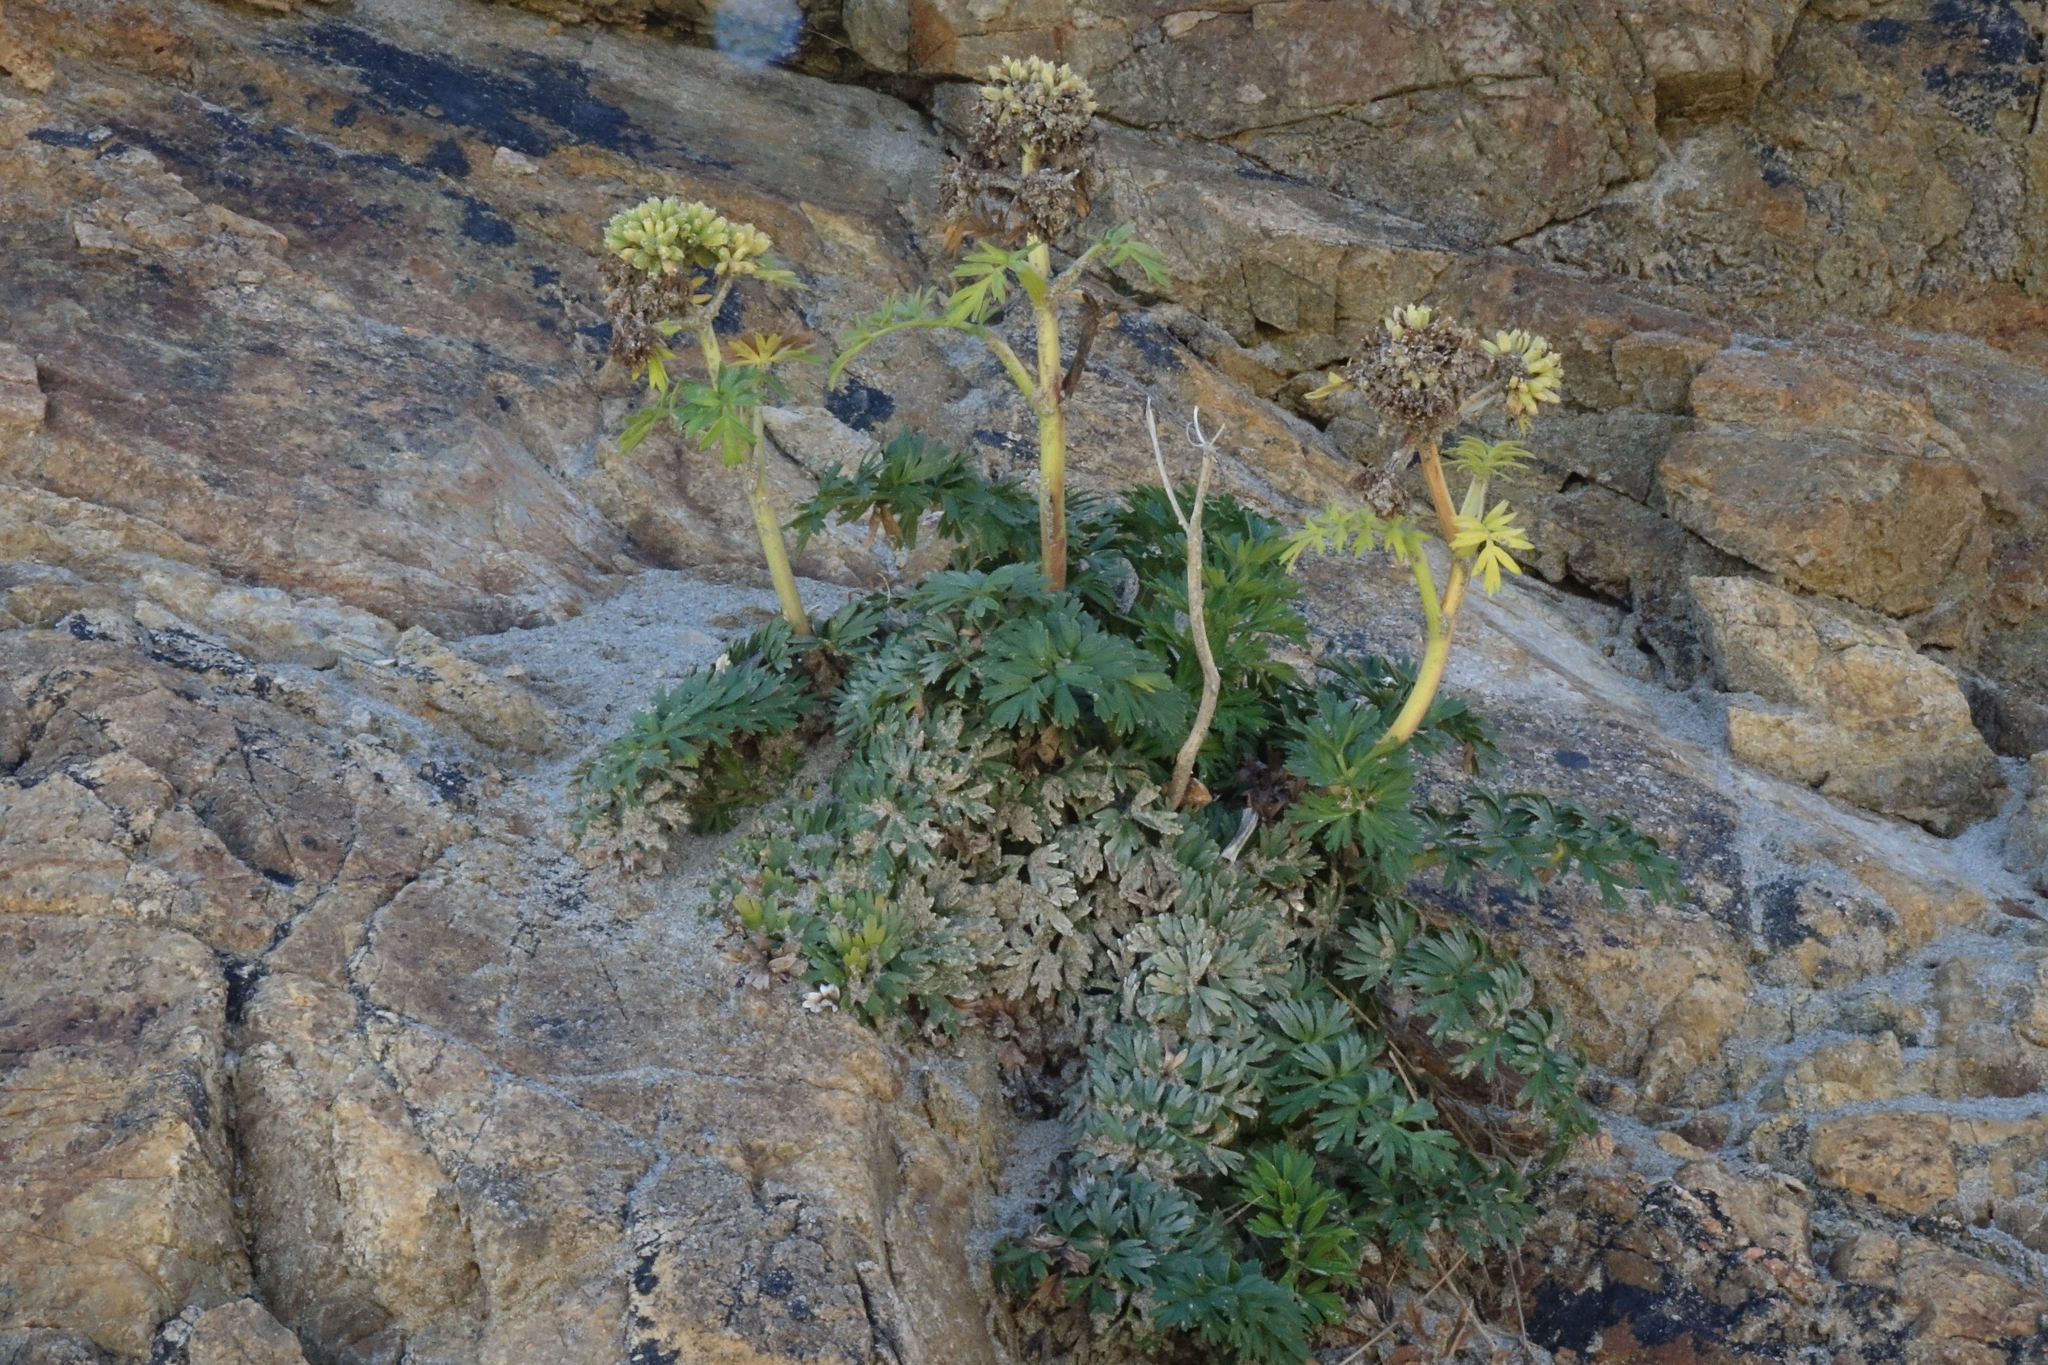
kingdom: Plantae
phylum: Tracheophyta
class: Magnoliopsida
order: Apiales
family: Apiaceae
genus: Anisotome
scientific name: Anisotome lyallii
